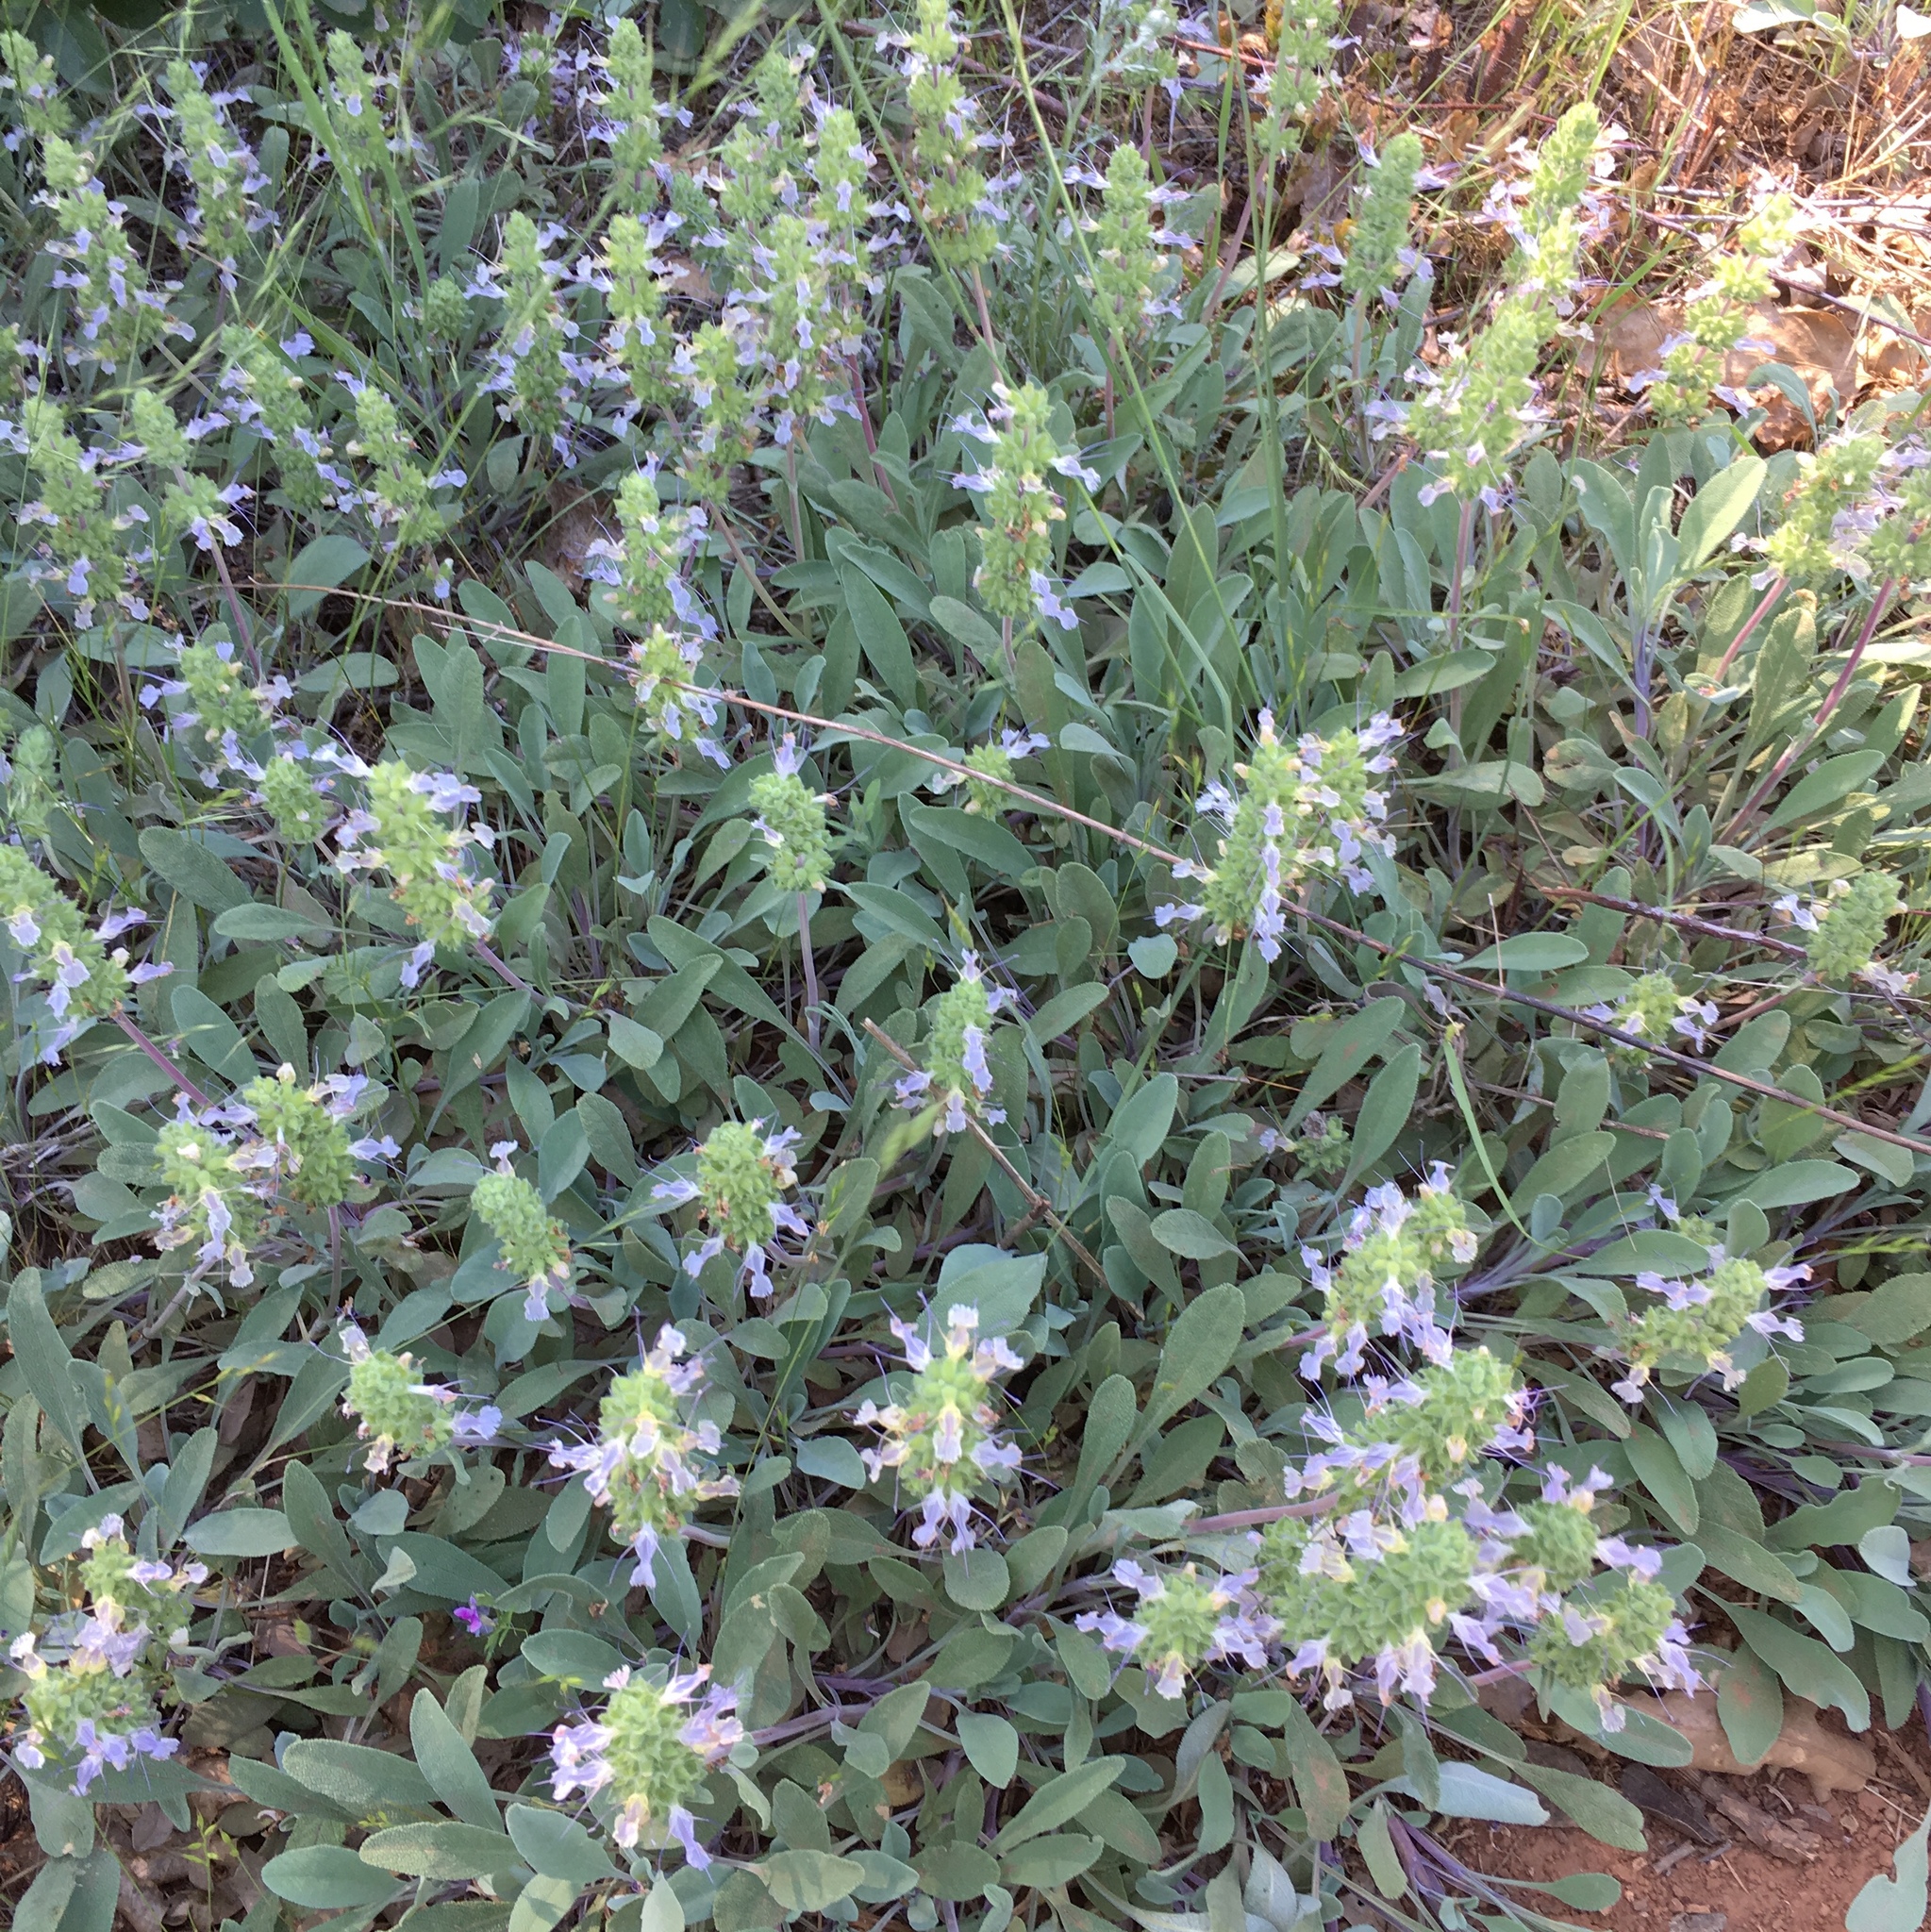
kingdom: Plantae
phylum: Tracheophyta
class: Magnoliopsida
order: Lamiales
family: Lamiaceae
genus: Salvia
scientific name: Salvia sonomensis
